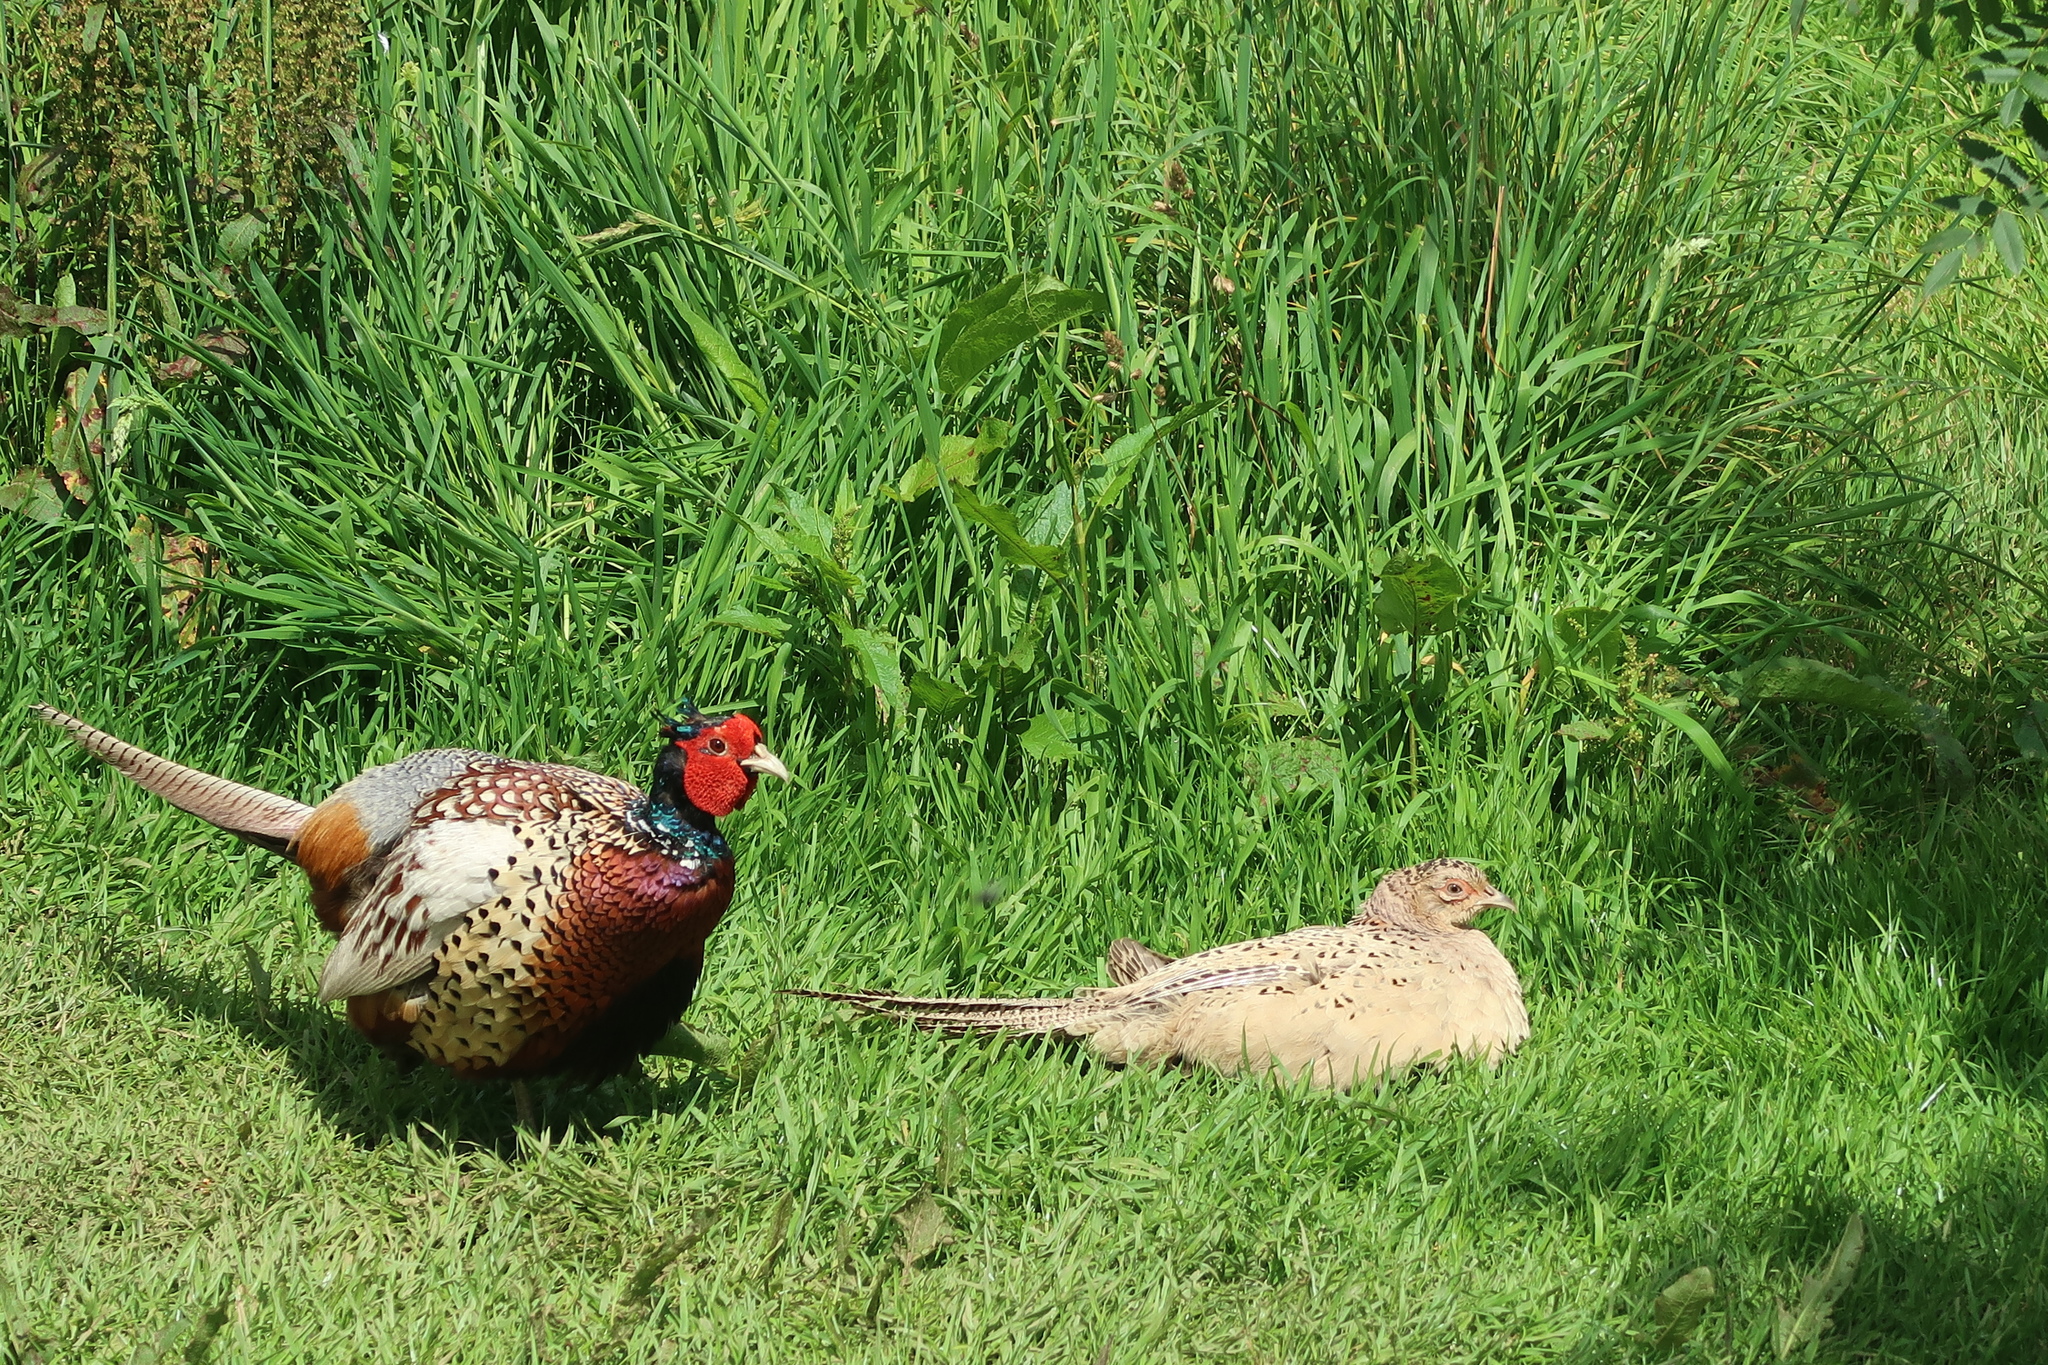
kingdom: Animalia
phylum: Chordata
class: Aves
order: Galliformes
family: Phasianidae
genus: Phasianus
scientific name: Phasianus colchicus
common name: Common pheasant
